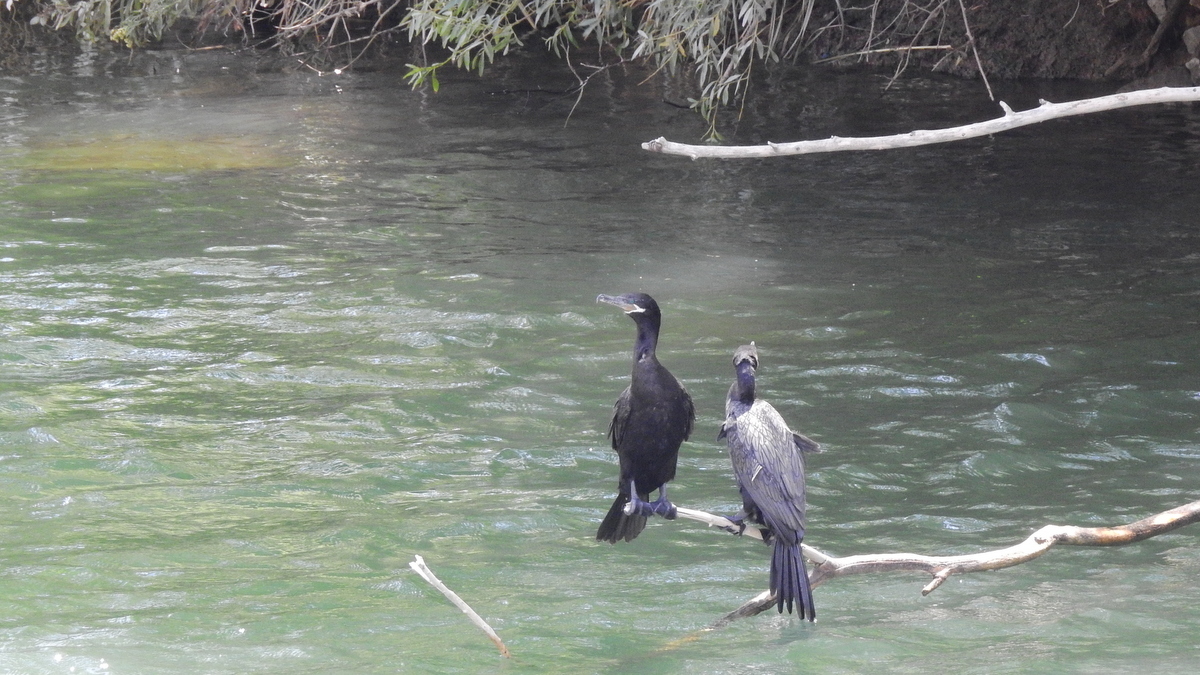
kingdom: Animalia
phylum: Chordata
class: Aves
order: Suliformes
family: Phalacrocoracidae
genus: Phalacrocorax
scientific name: Phalacrocorax brasilianus
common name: Neotropic cormorant
